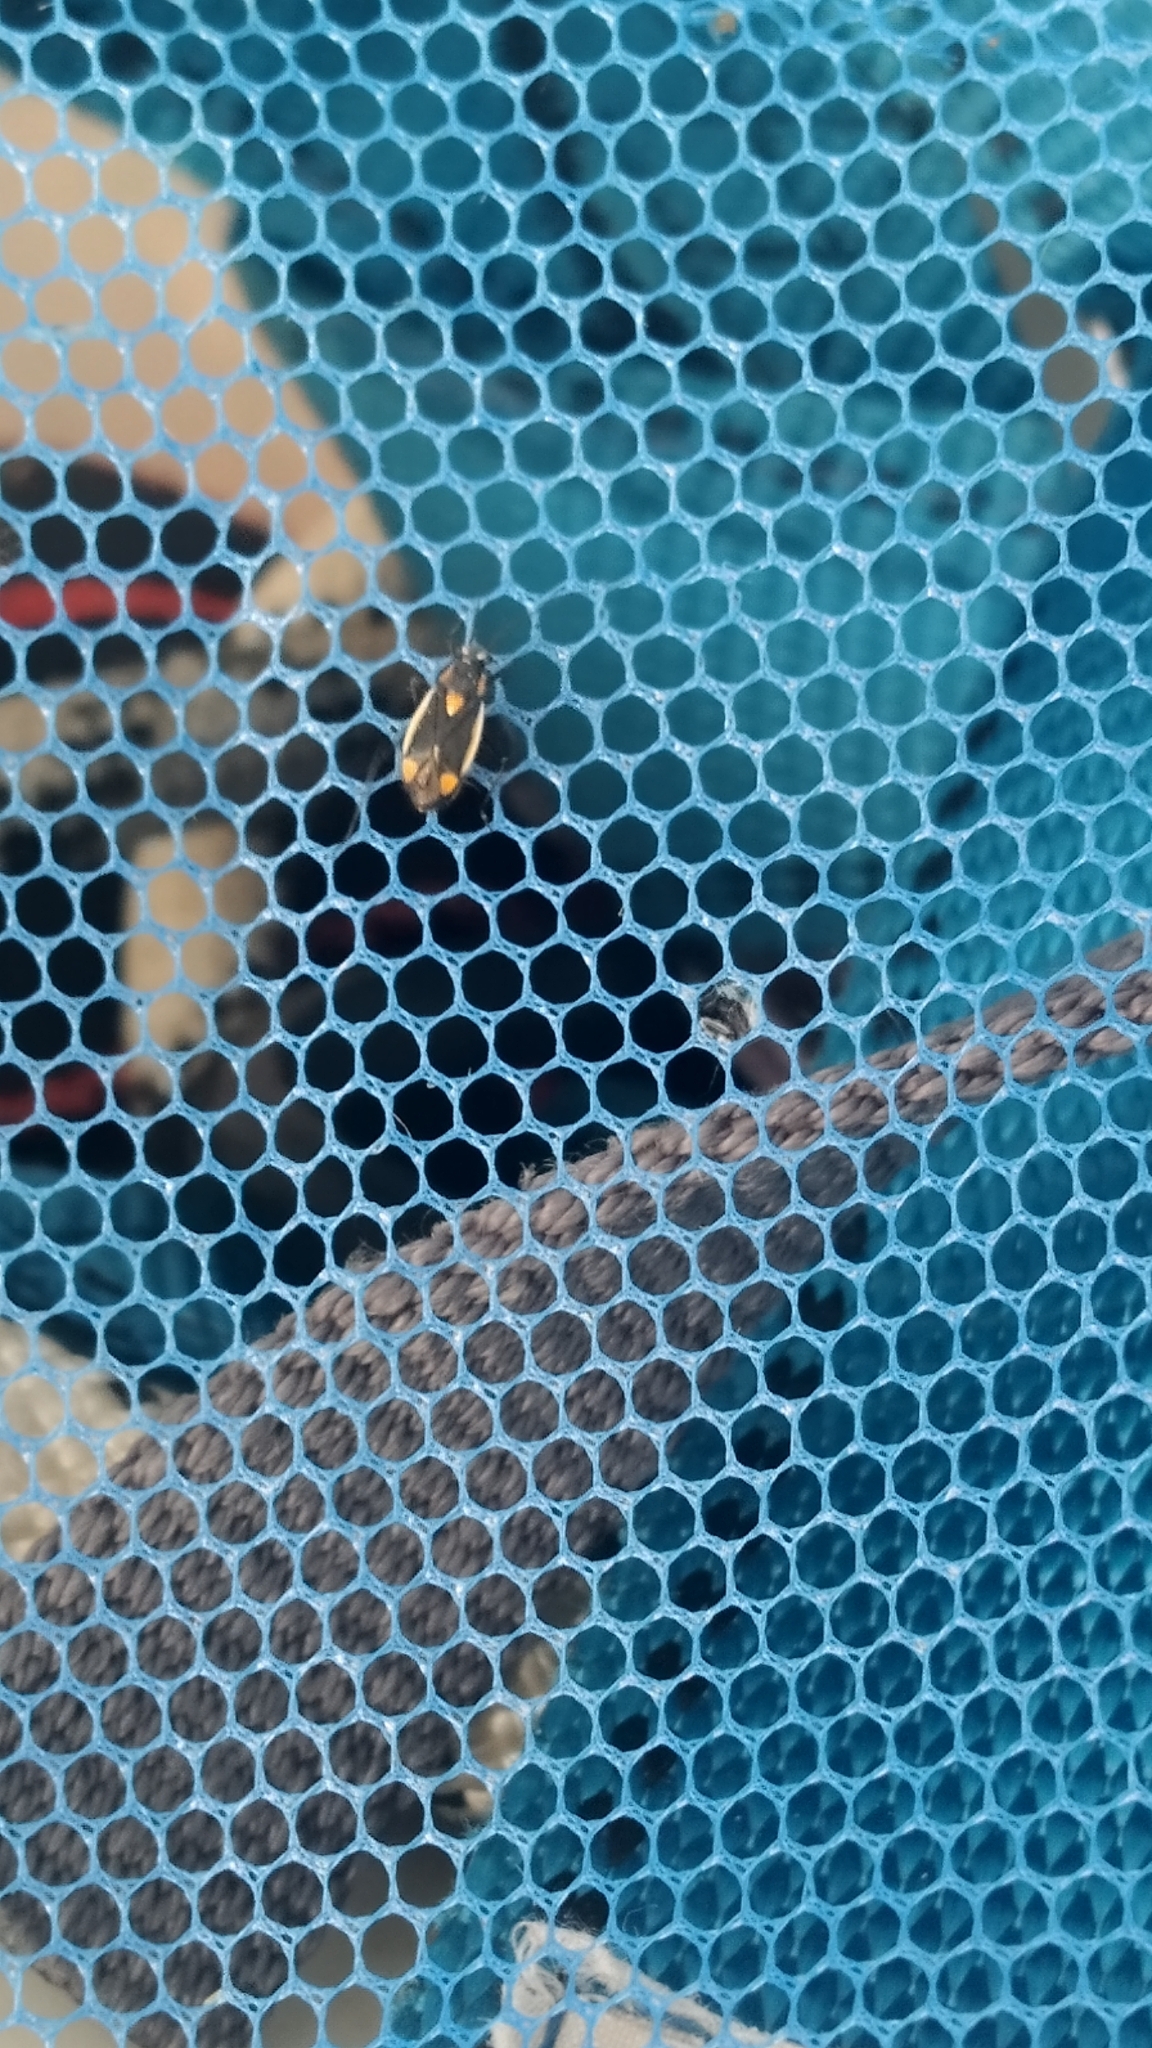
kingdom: Animalia
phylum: Arthropoda
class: Insecta
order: Hemiptera
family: Miridae
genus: Capsodes
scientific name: Capsodes gothicus
